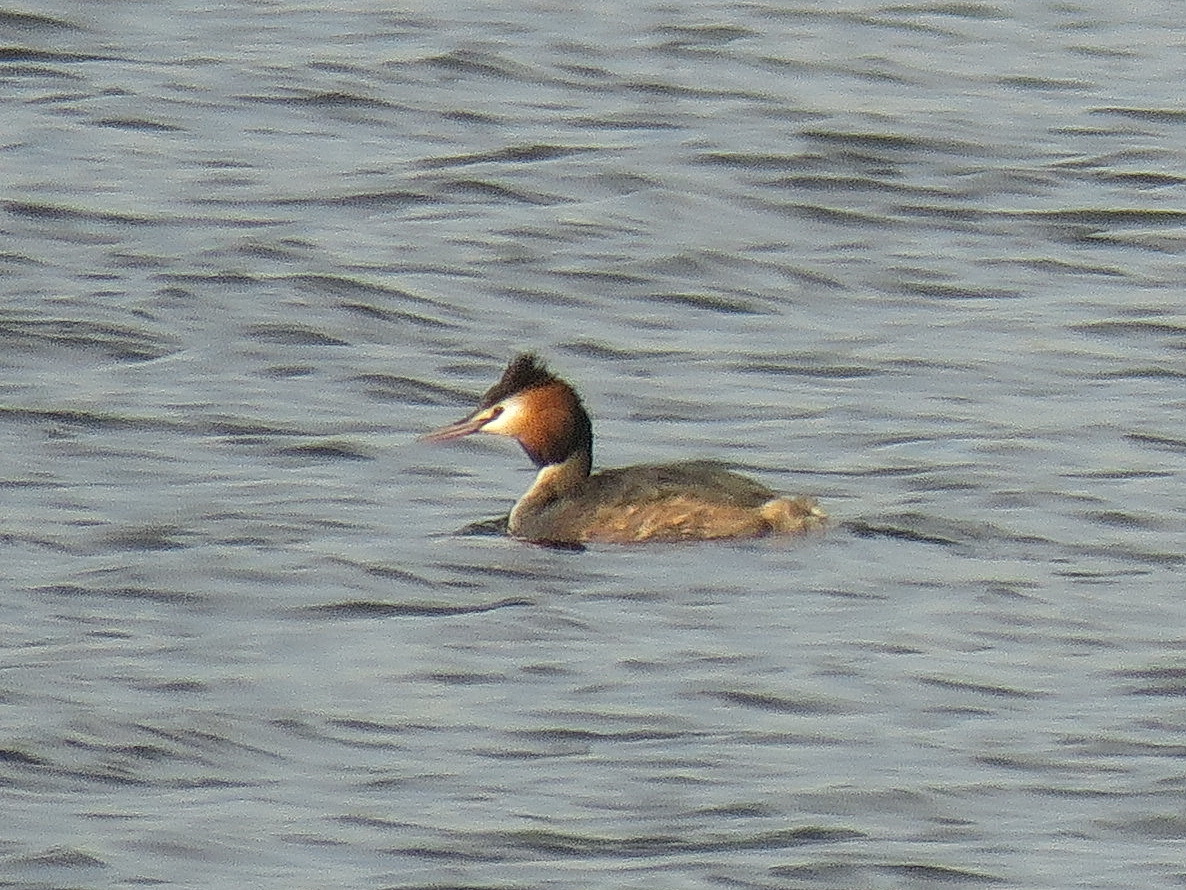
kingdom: Animalia
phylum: Chordata
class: Aves
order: Podicipediformes
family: Podicipedidae
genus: Podiceps
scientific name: Podiceps cristatus
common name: Great crested grebe
